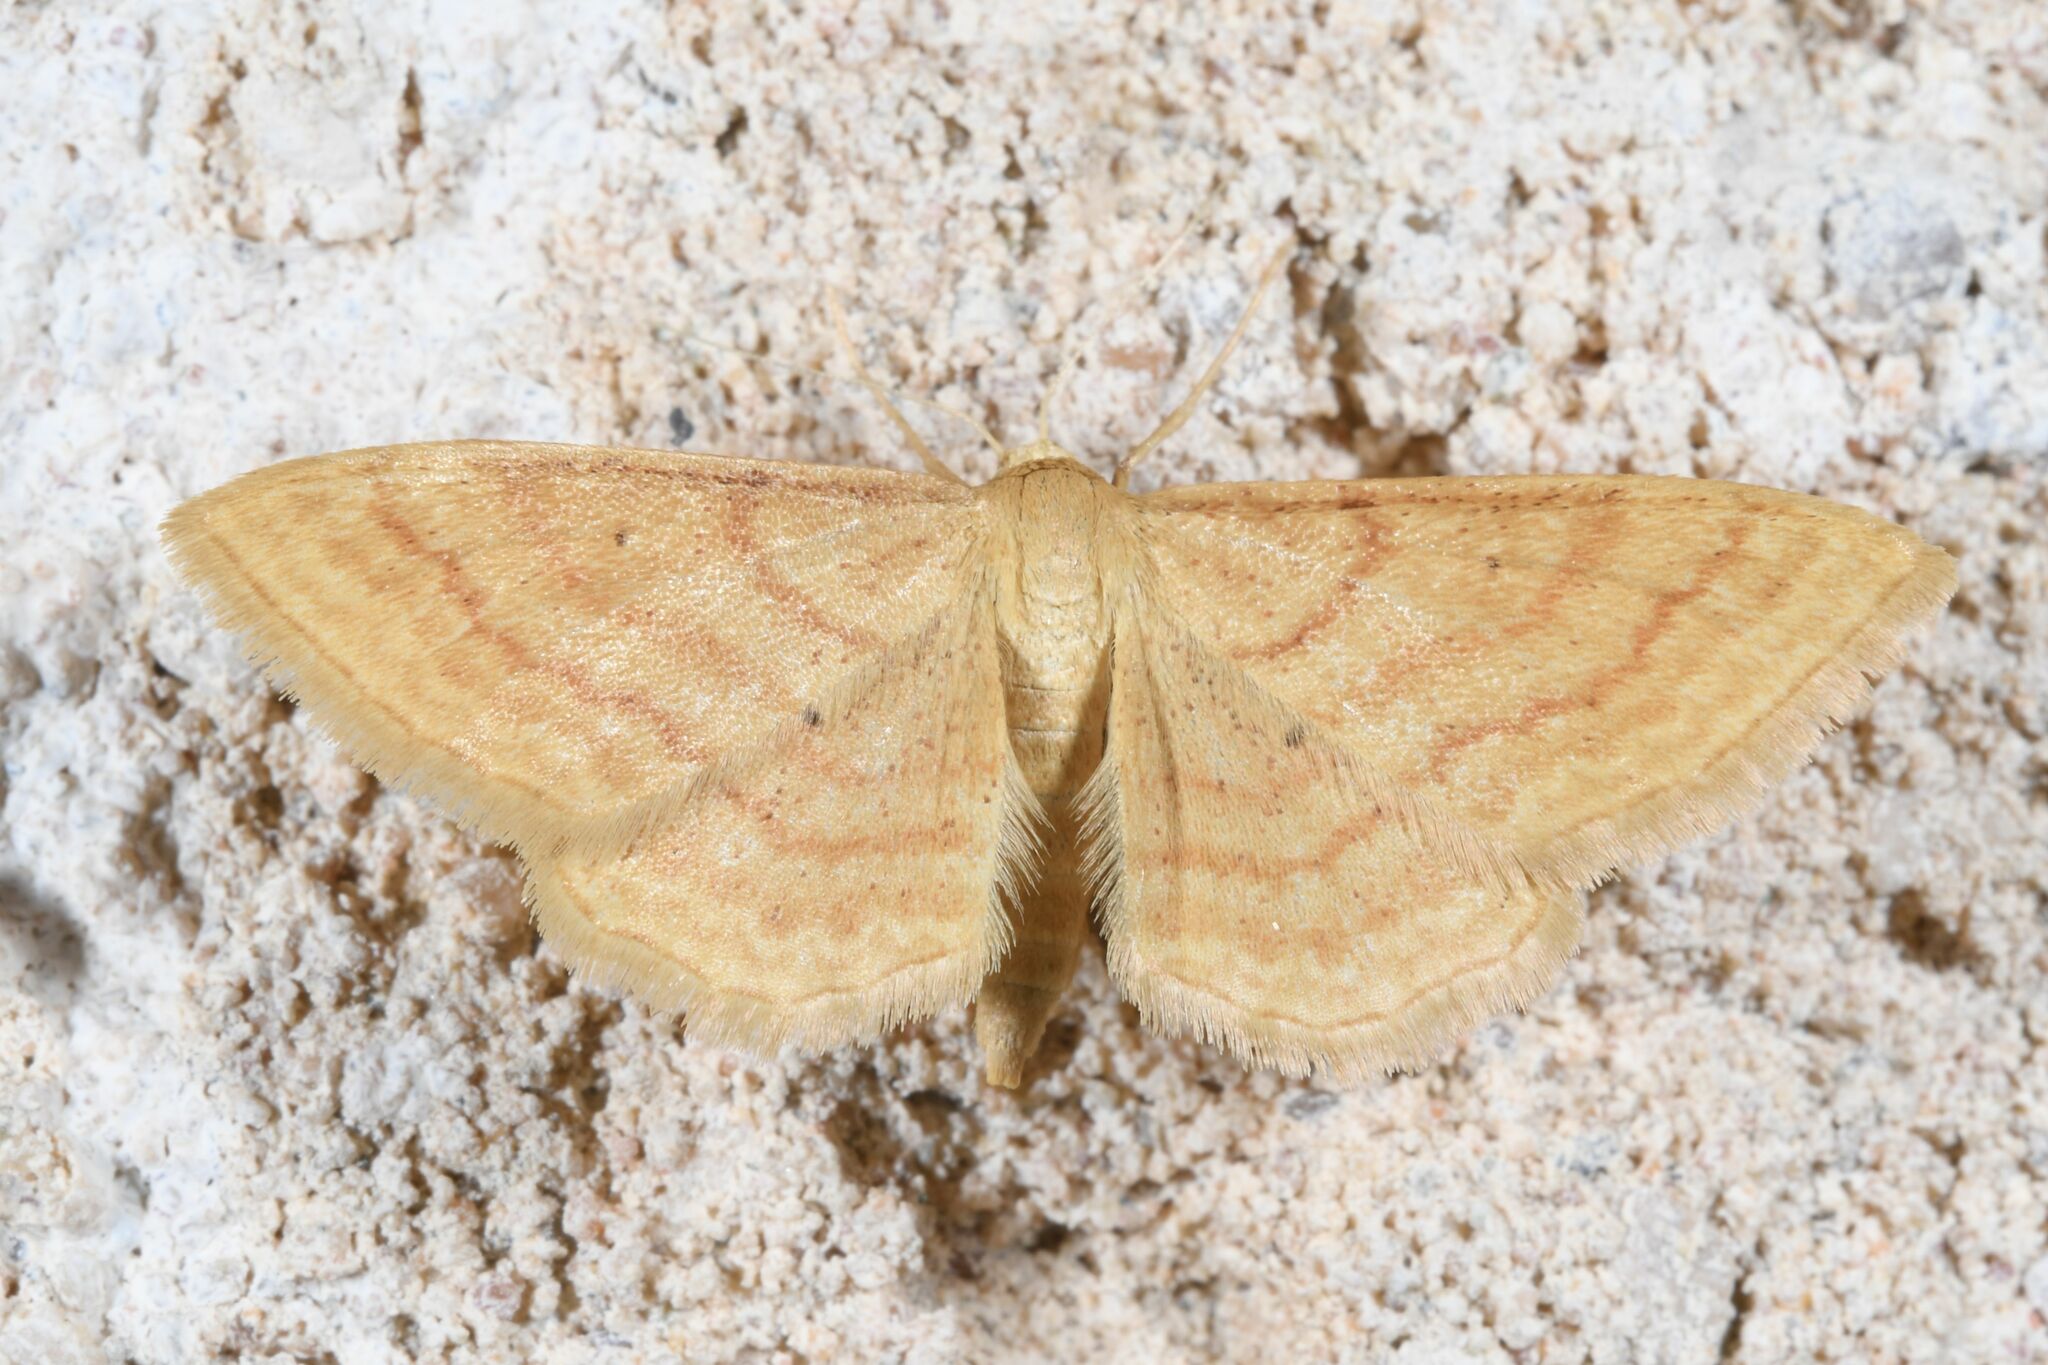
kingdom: Animalia
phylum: Arthropoda
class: Insecta
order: Lepidoptera
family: Geometridae
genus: Idaea
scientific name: Idaea rufaria
